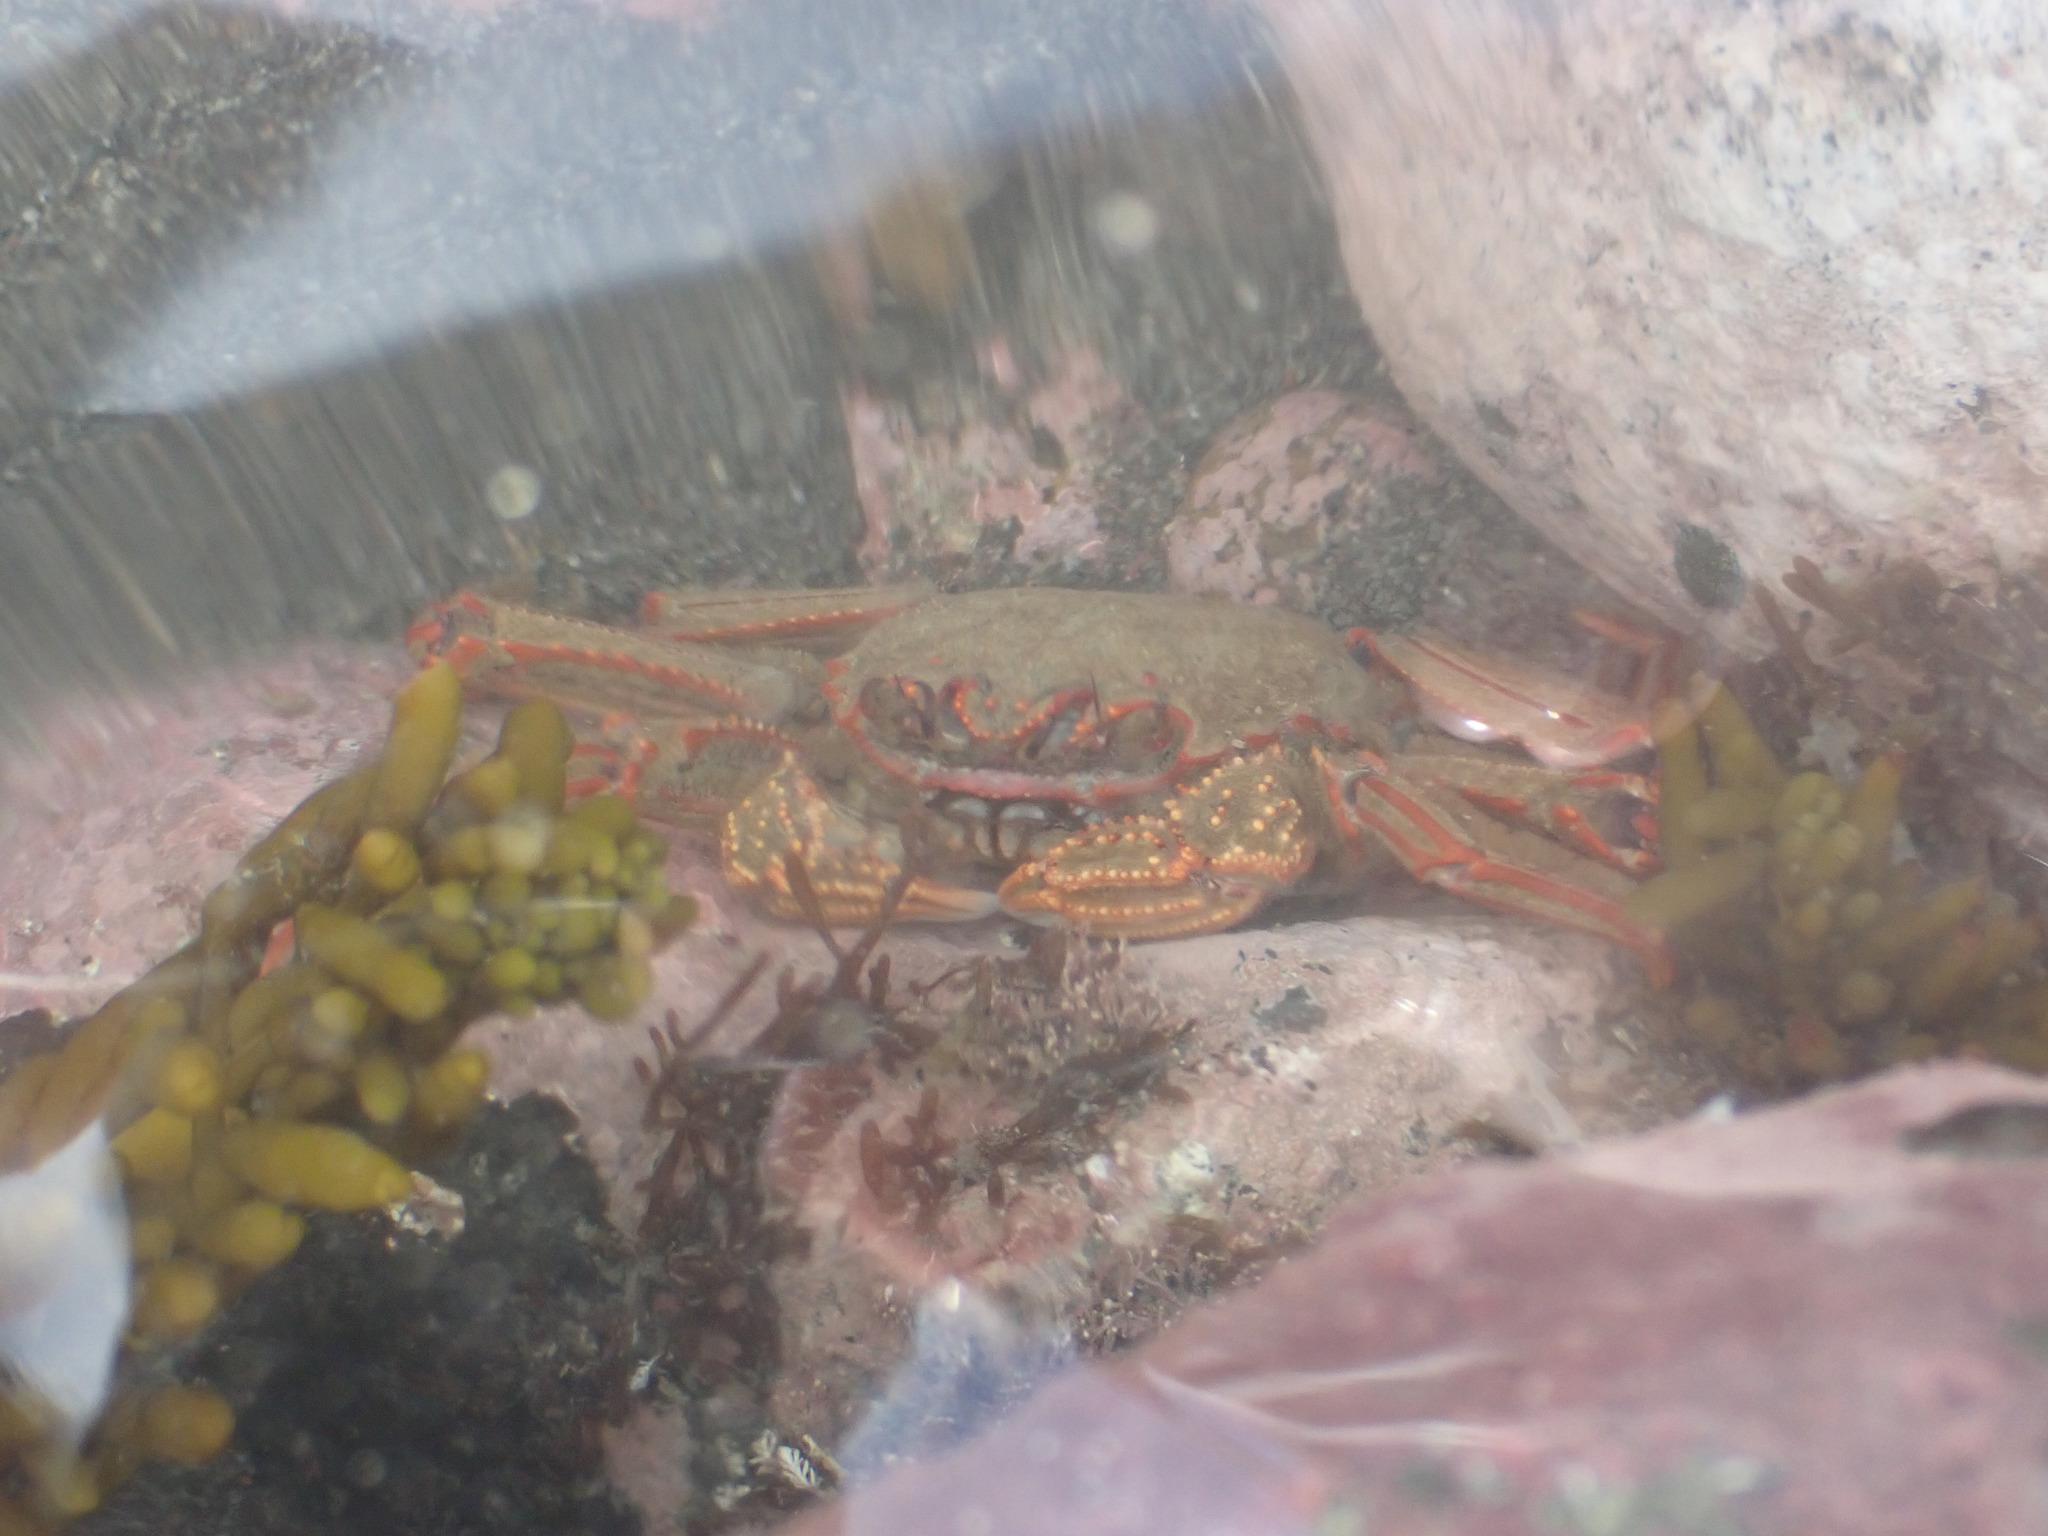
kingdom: Animalia
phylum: Arthropoda
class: Malacostraca
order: Decapoda
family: Plagusiidae
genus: Guinusia
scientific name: Guinusia chabrus
